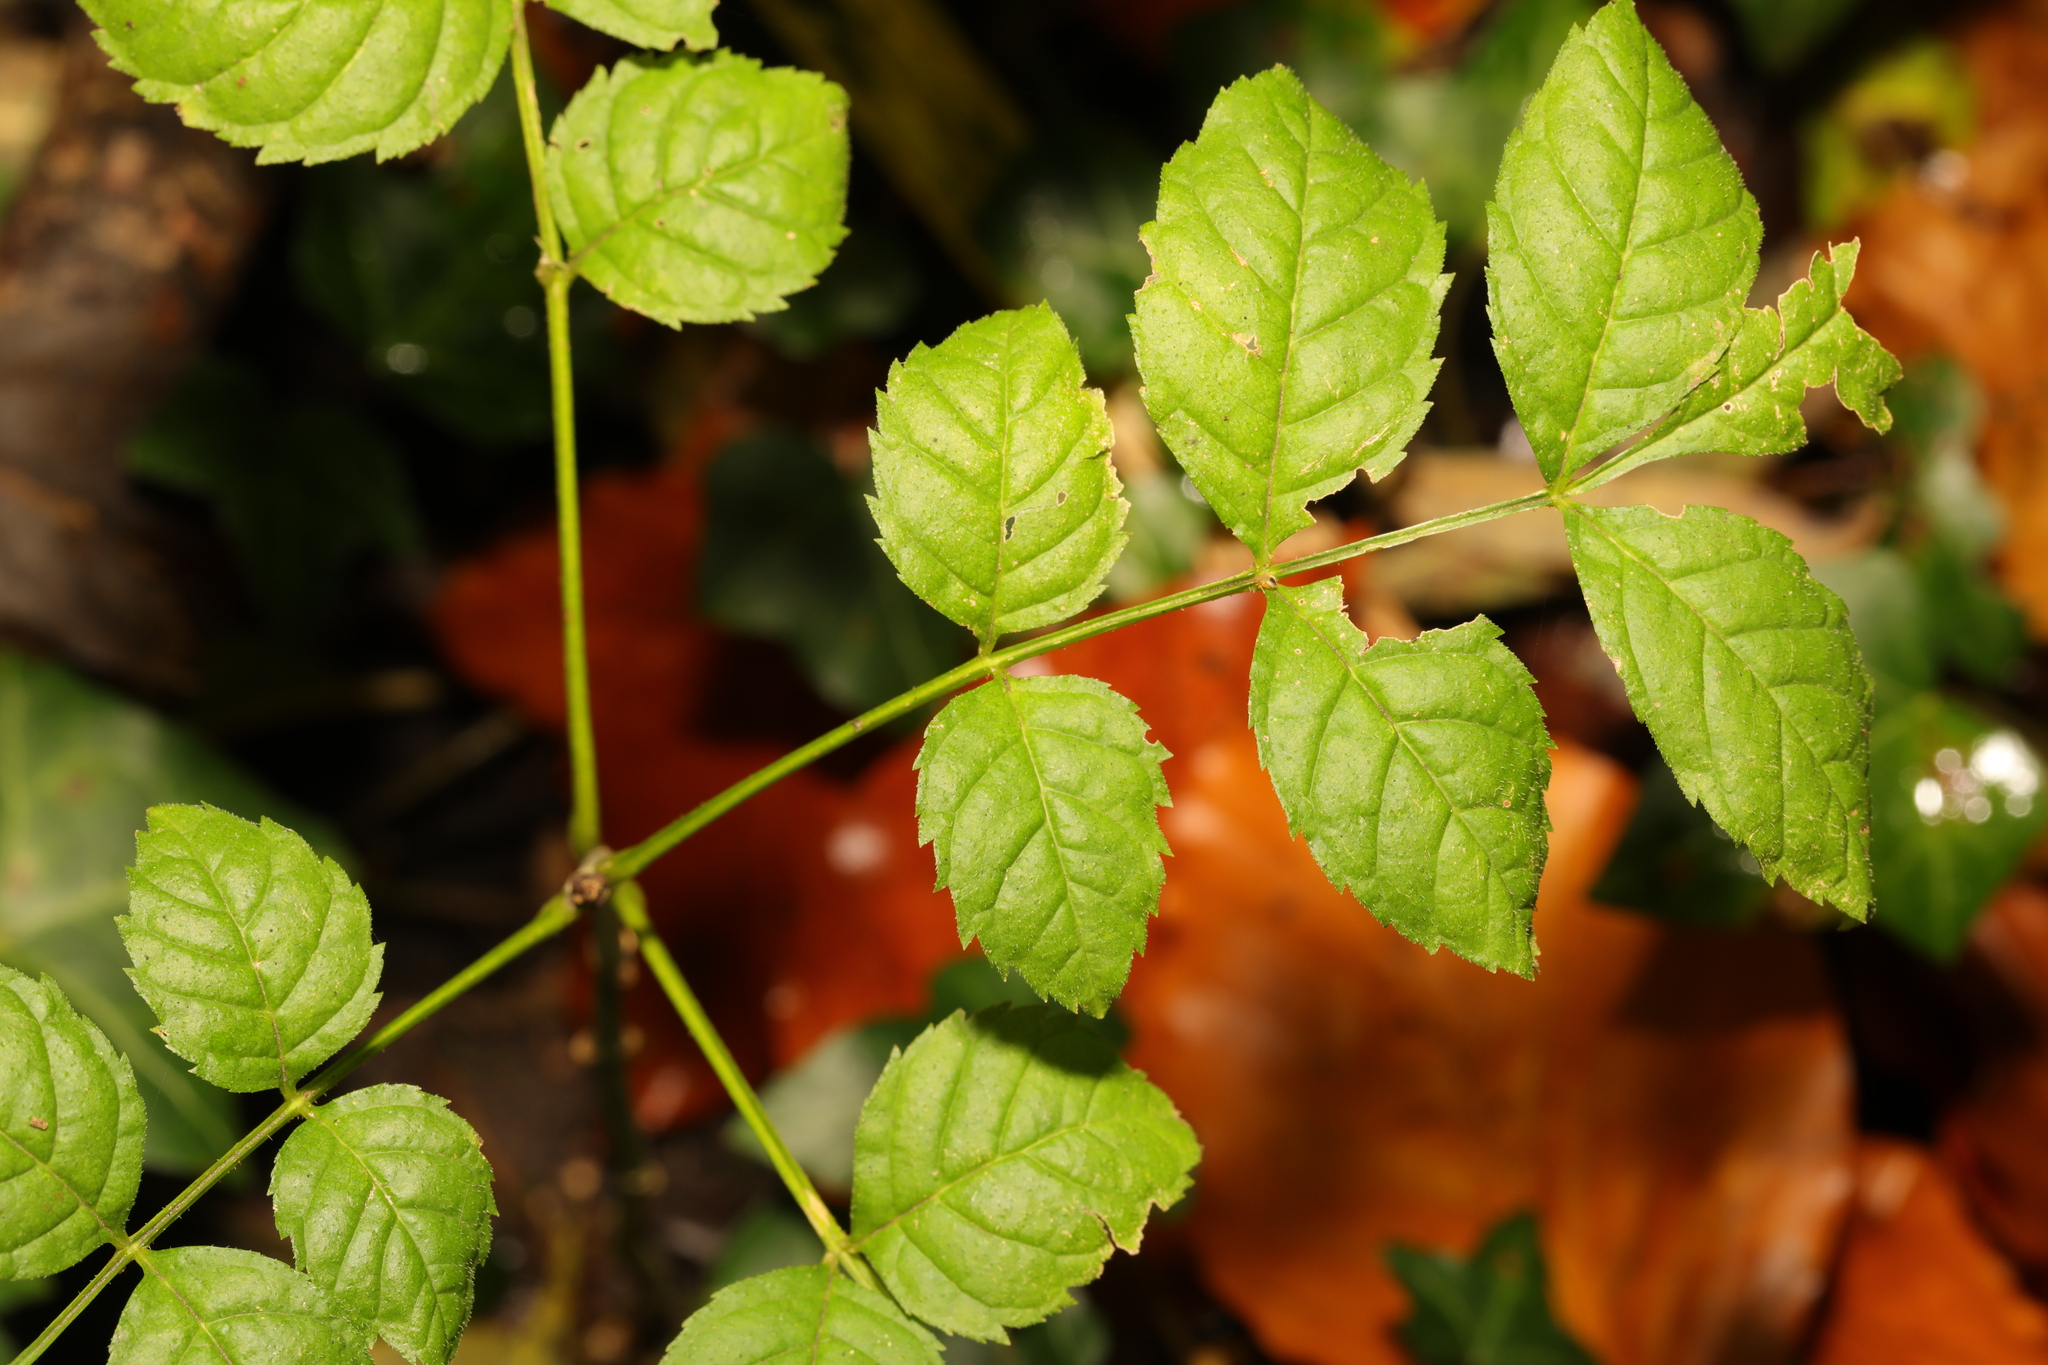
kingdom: Plantae
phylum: Tracheophyta
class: Magnoliopsida
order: Lamiales
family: Oleaceae
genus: Fraxinus
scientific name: Fraxinus excelsior
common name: European ash
